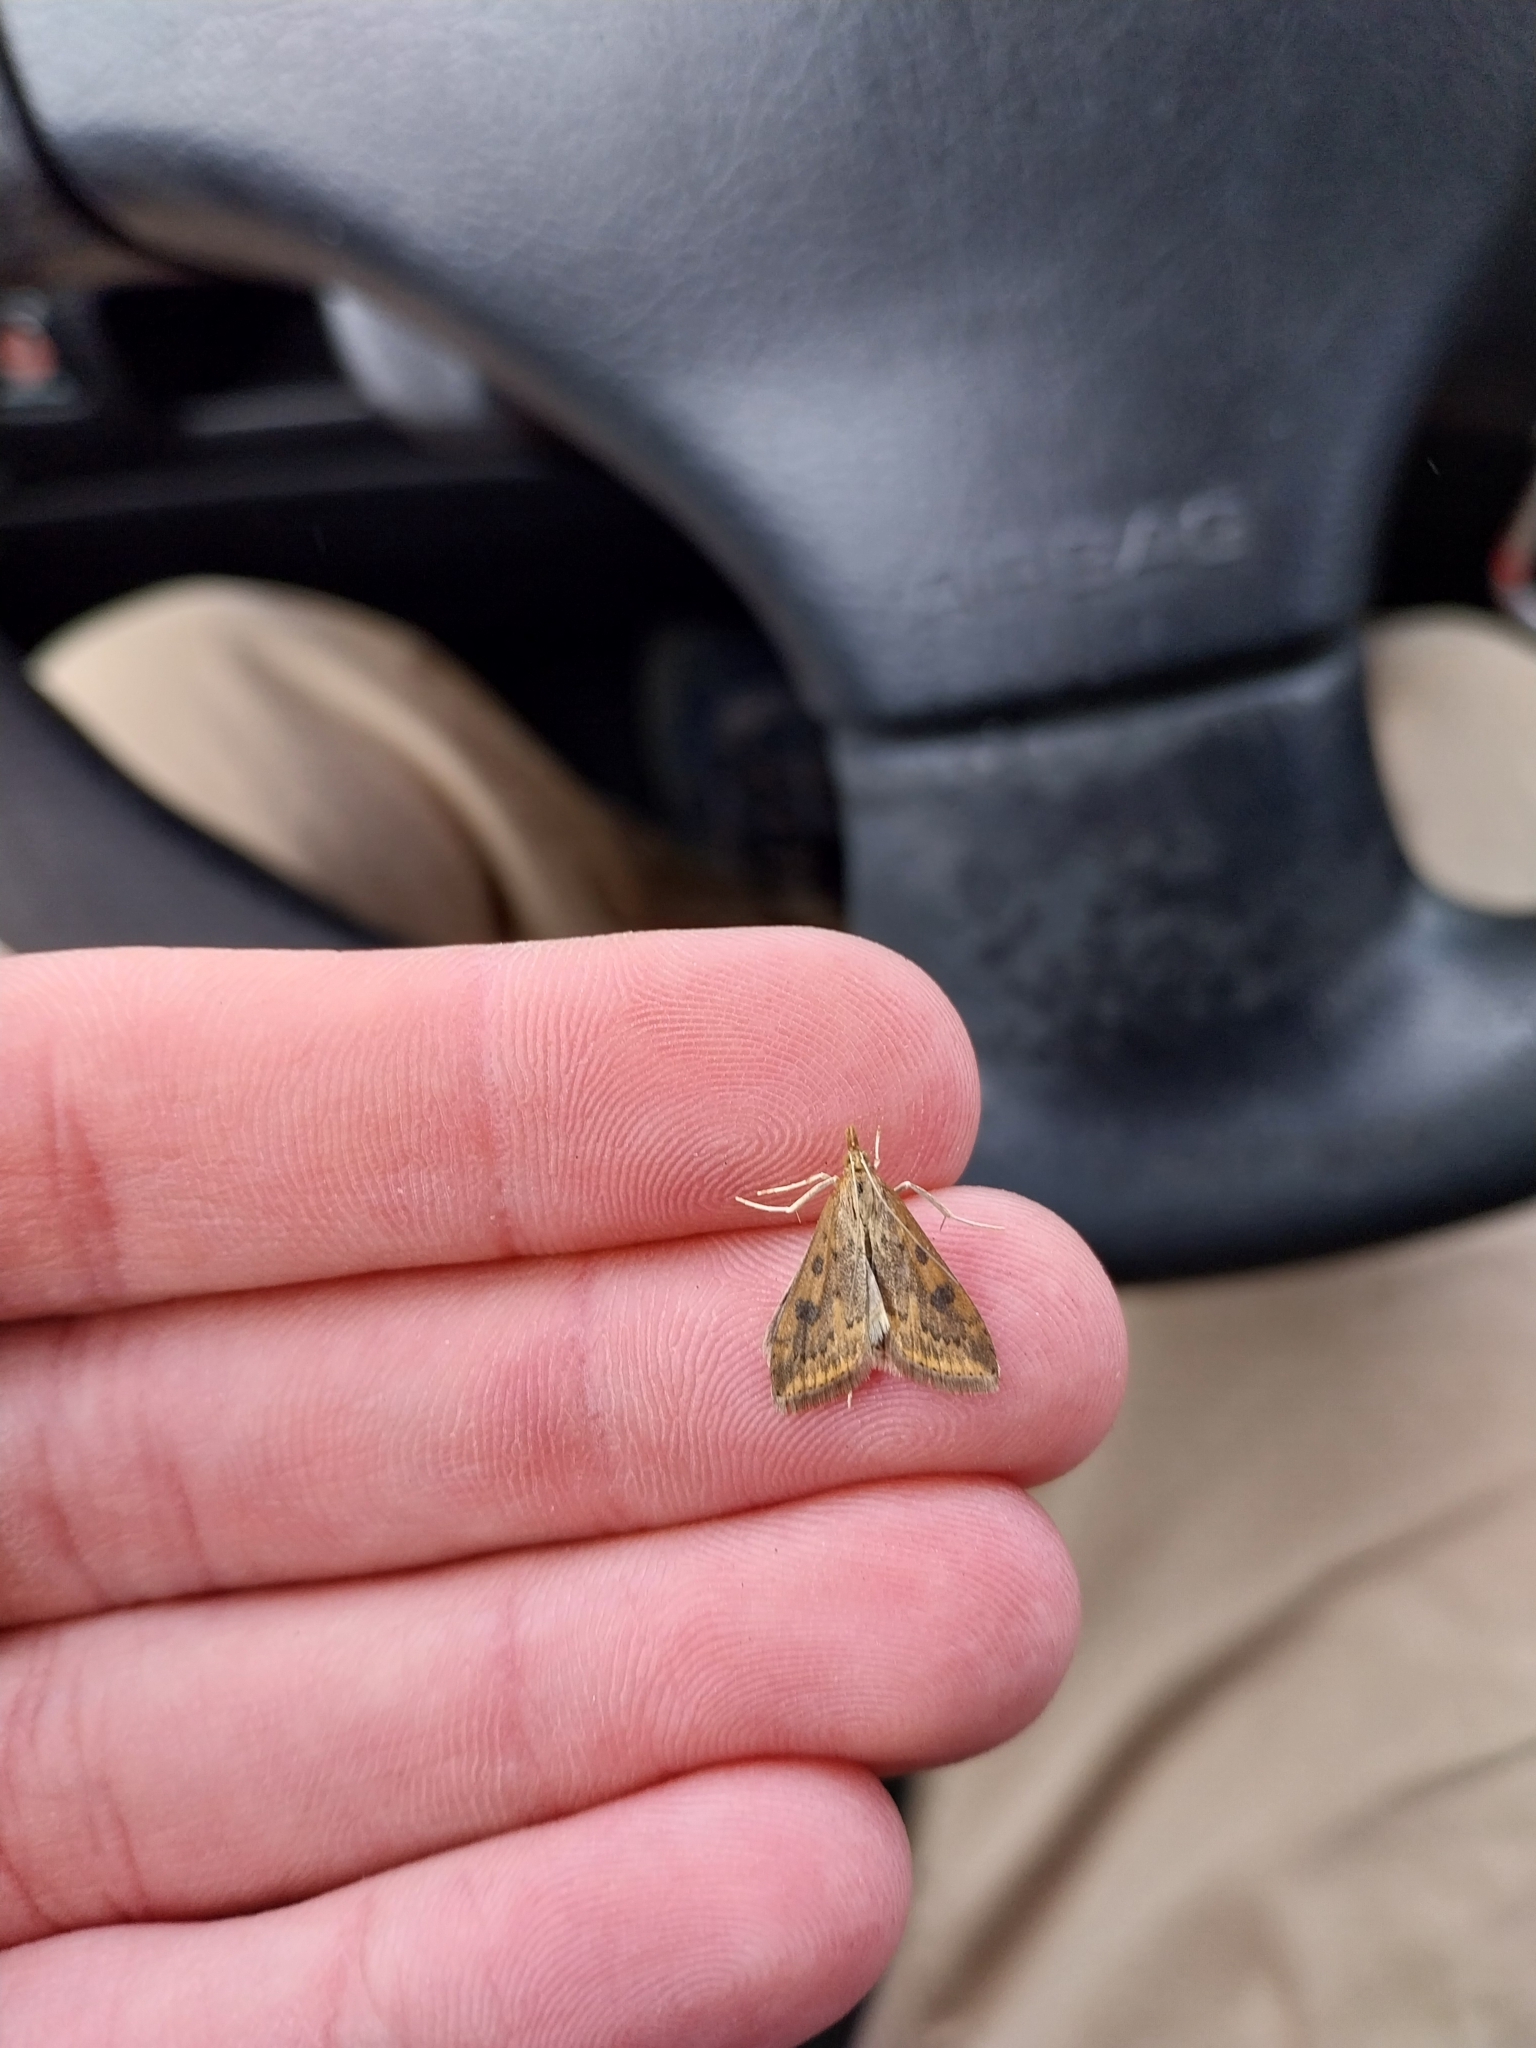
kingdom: Animalia
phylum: Arthropoda
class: Insecta
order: Lepidoptera
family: Crambidae
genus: Udea
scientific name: Udea ferrugalis
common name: Rusty dot
